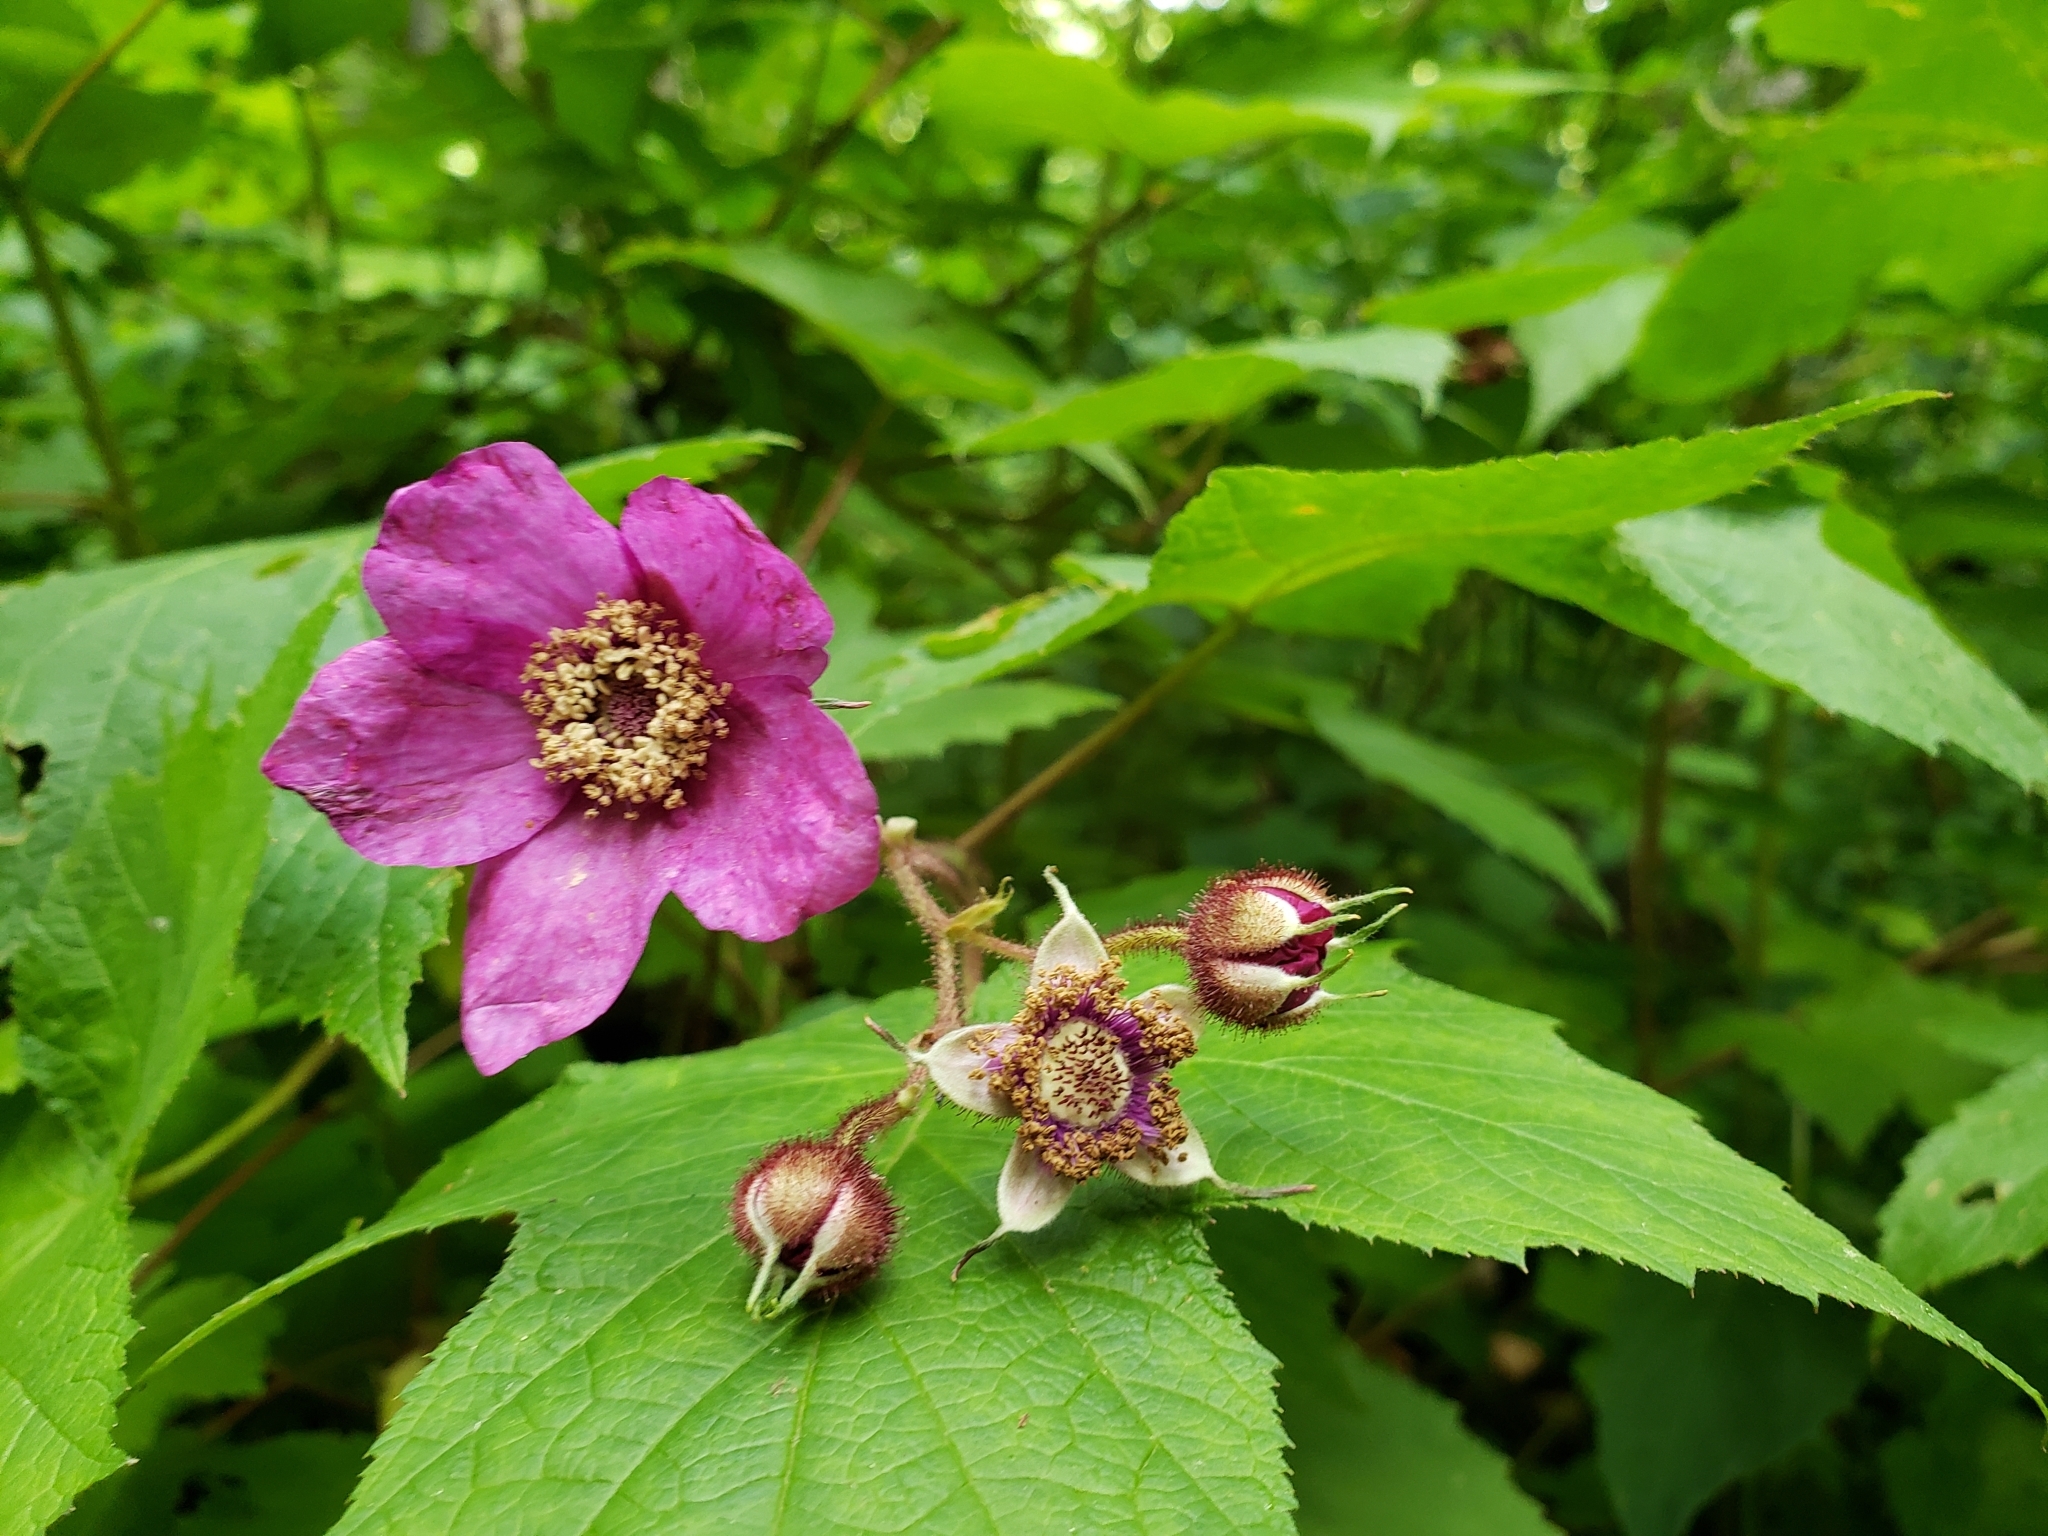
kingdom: Plantae
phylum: Tracheophyta
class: Magnoliopsida
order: Rosales
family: Rosaceae
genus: Rubus
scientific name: Rubus odoratus
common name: Purple-flowered raspberry
